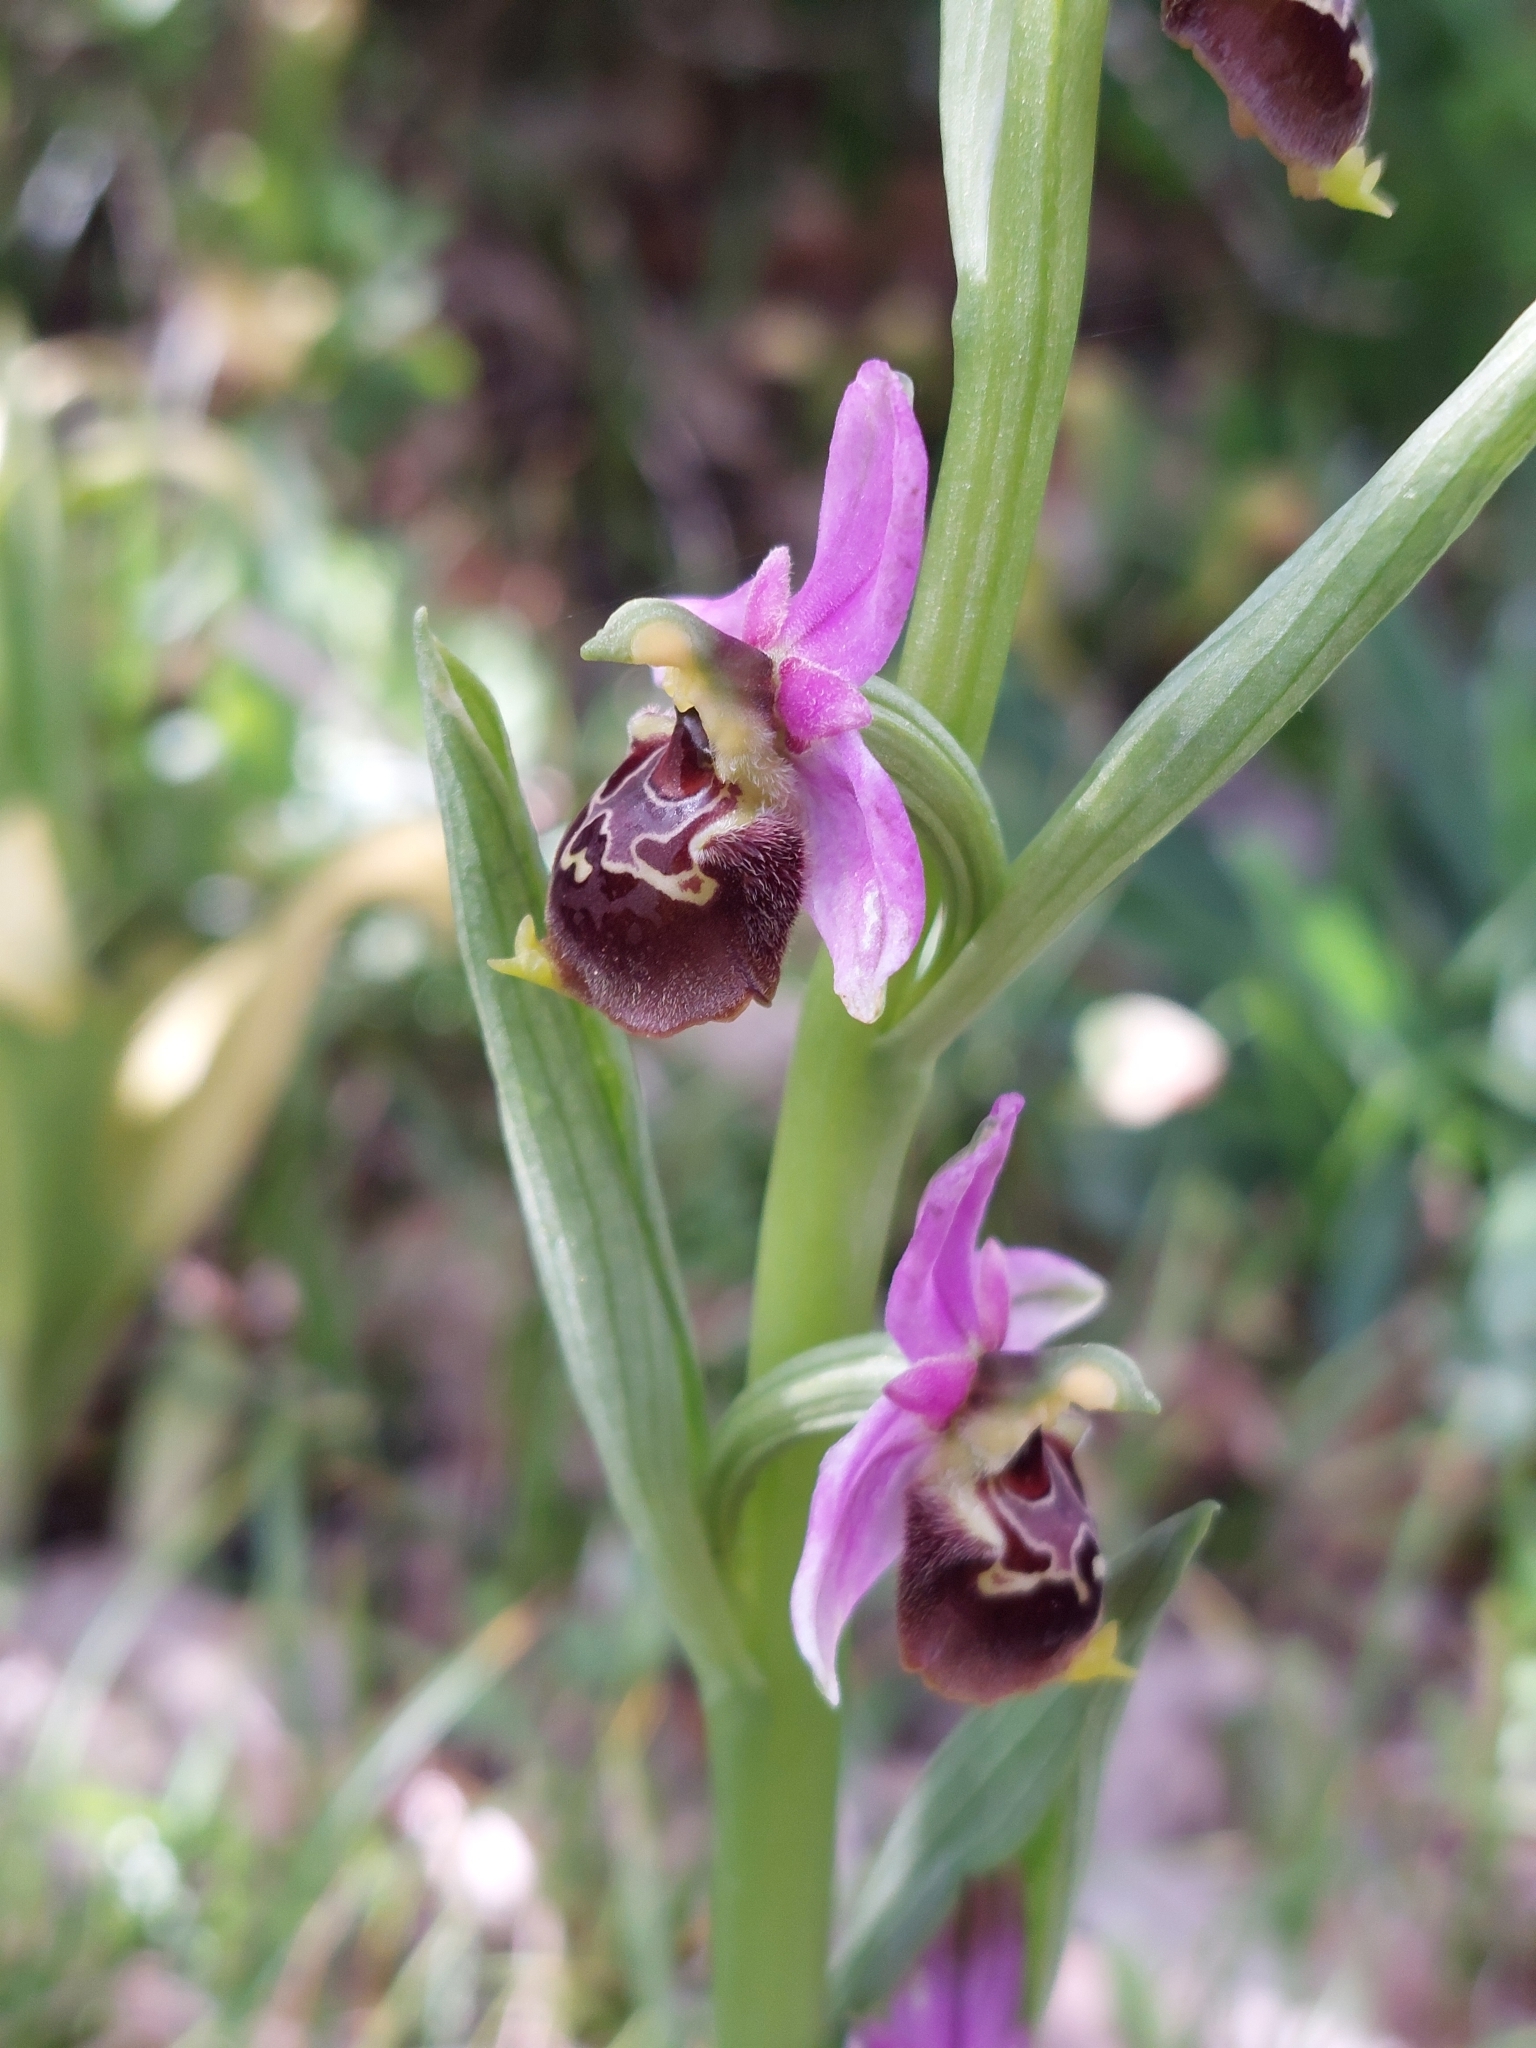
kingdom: Plantae
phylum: Tracheophyta
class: Liliopsida
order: Asparagales
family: Orchidaceae
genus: Ophrys
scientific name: Ophrys holosericea
